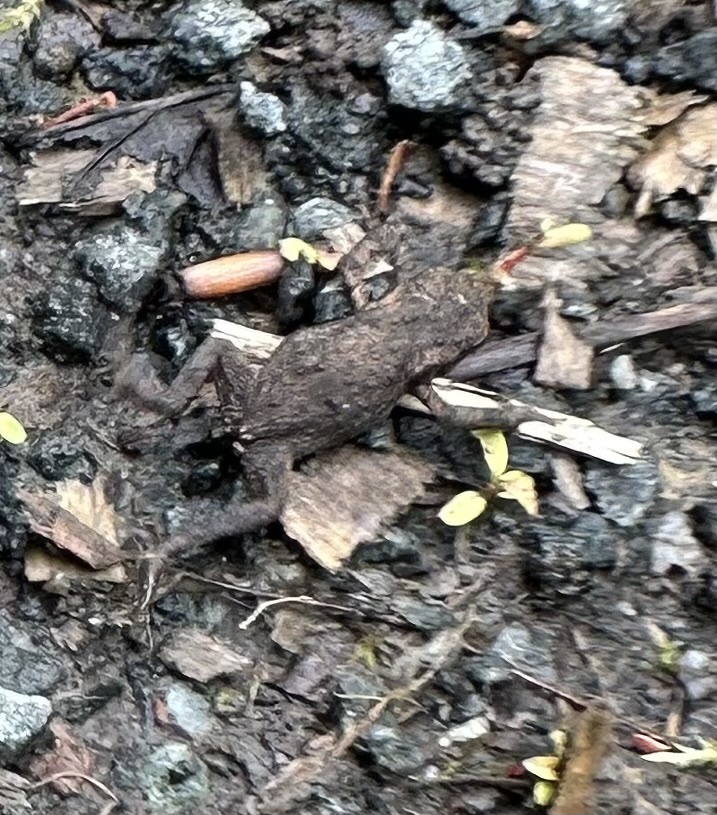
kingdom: Animalia
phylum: Chordata
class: Amphibia
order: Anura
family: Bufonidae
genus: Bufo
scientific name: Bufo bufo
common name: Common toad
